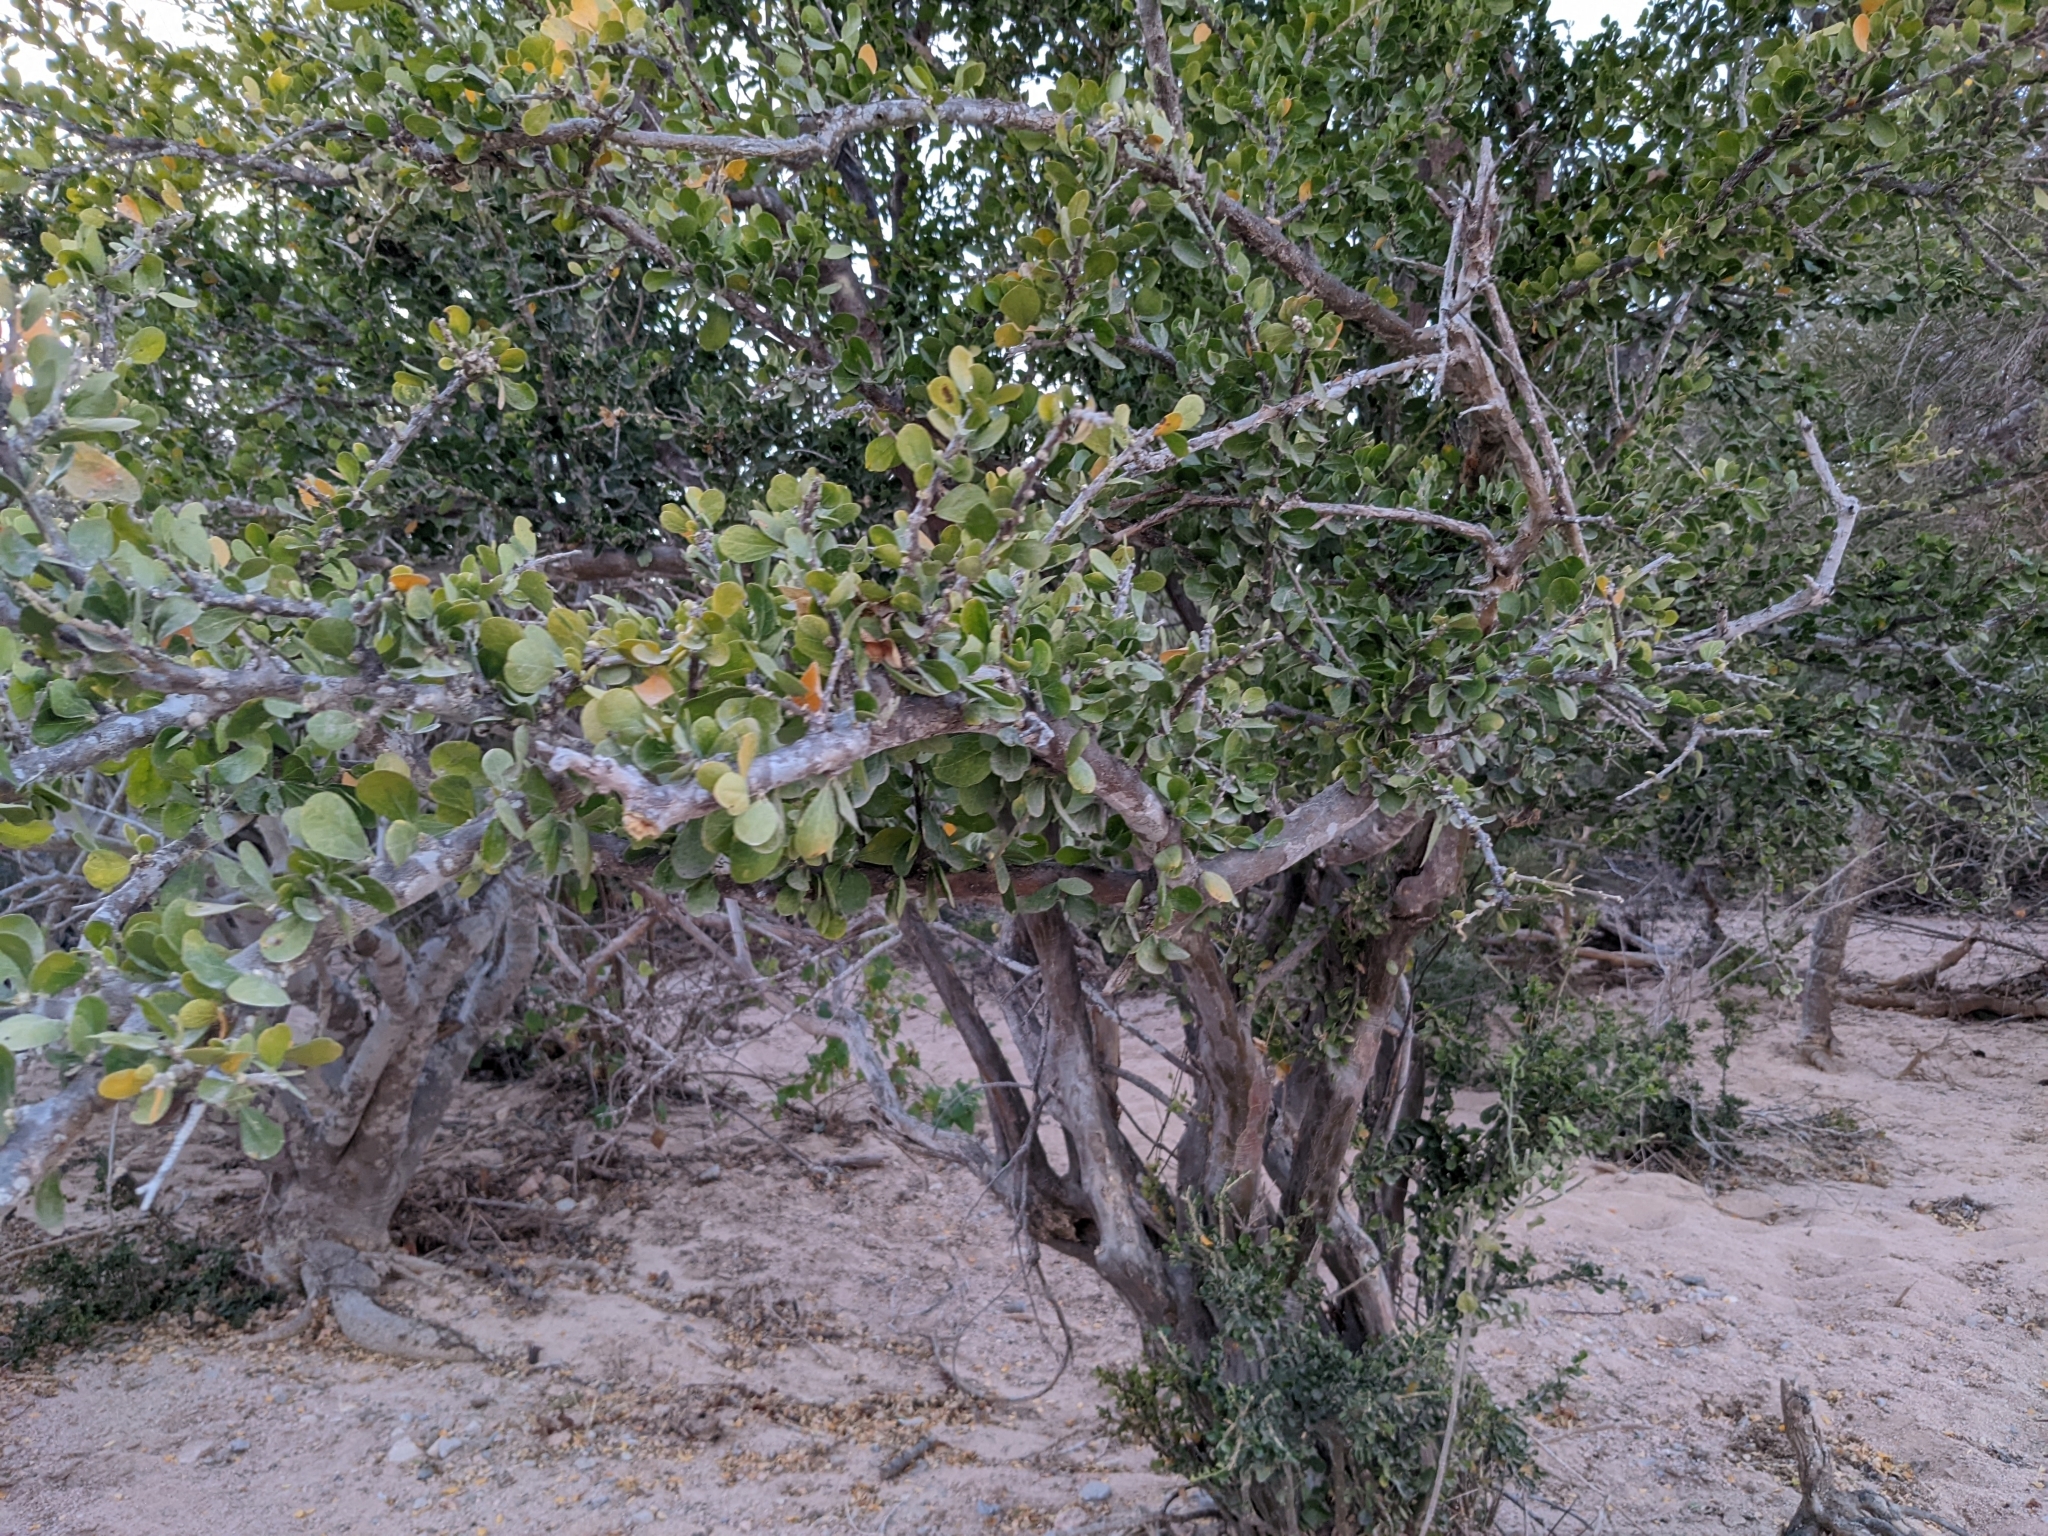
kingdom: Plantae
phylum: Tracheophyta
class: Magnoliopsida
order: Malpighiales
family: Euphorbiaceae
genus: Adelia
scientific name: Adelia brandegeei
